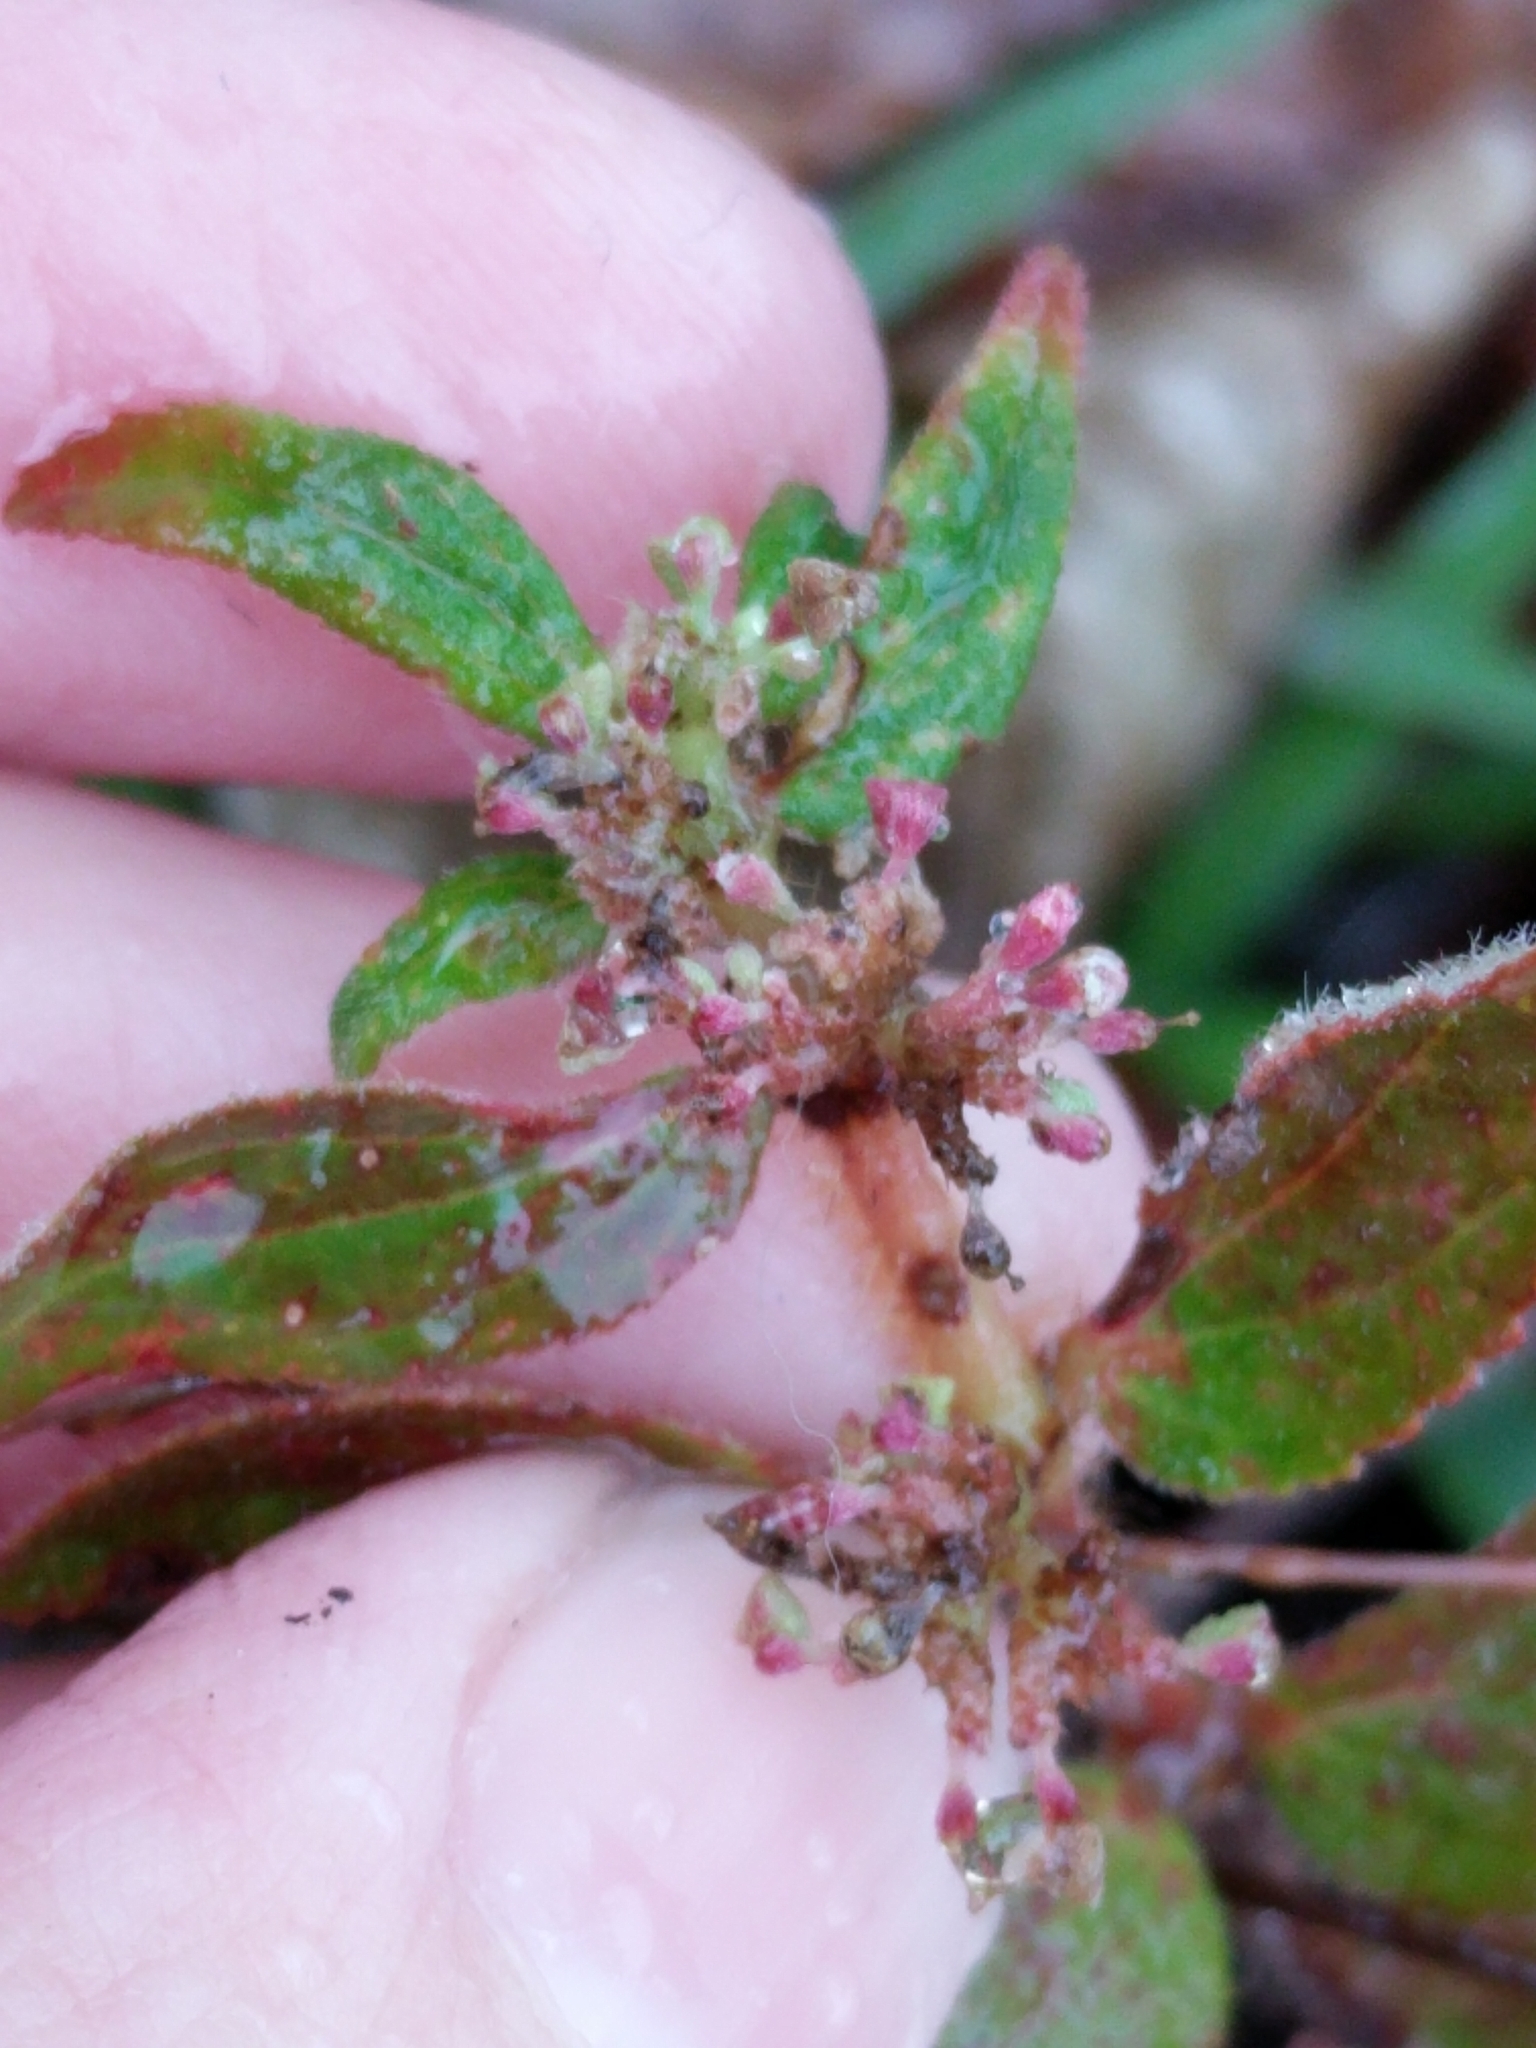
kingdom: Plantae
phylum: Tracheophyta
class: Magnoliopsida
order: Malpighiales
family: Euphorbiaceae
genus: Euphorbia
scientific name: Euphorbia hirta
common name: Pillpod sandmat
